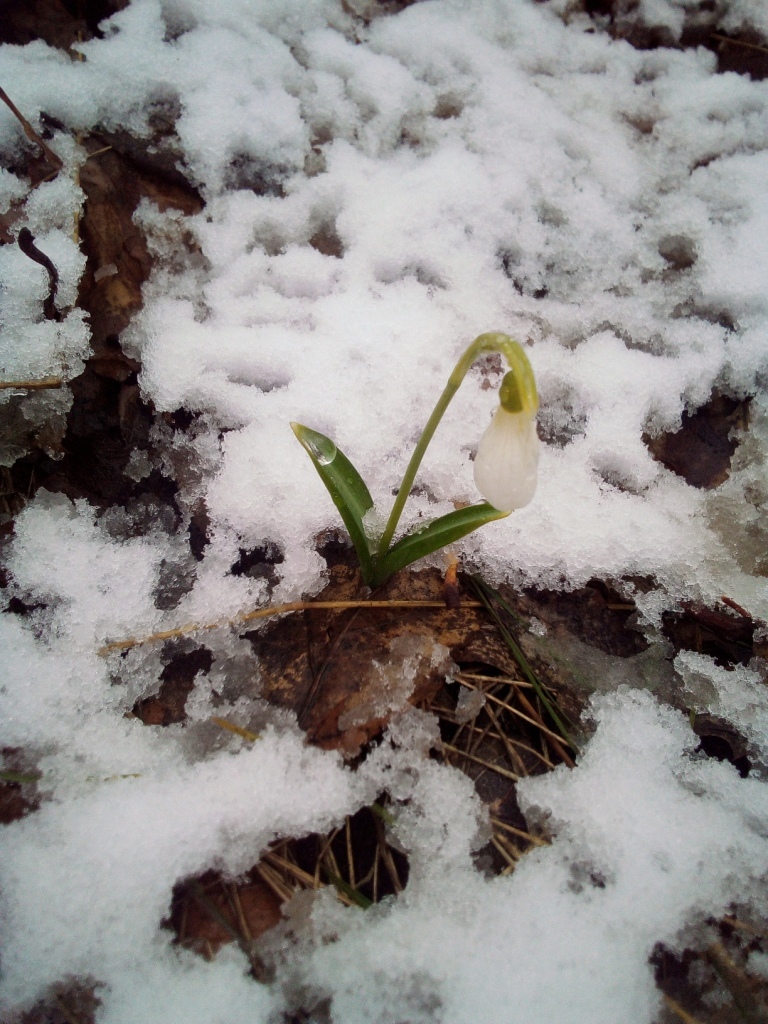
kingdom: Plantae
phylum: Tracheophyta
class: Liliopsida
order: Asparagales
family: Amaryllidaceae
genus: Galanthus
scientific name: Galanthus plicatus
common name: Pleated snowdrop
